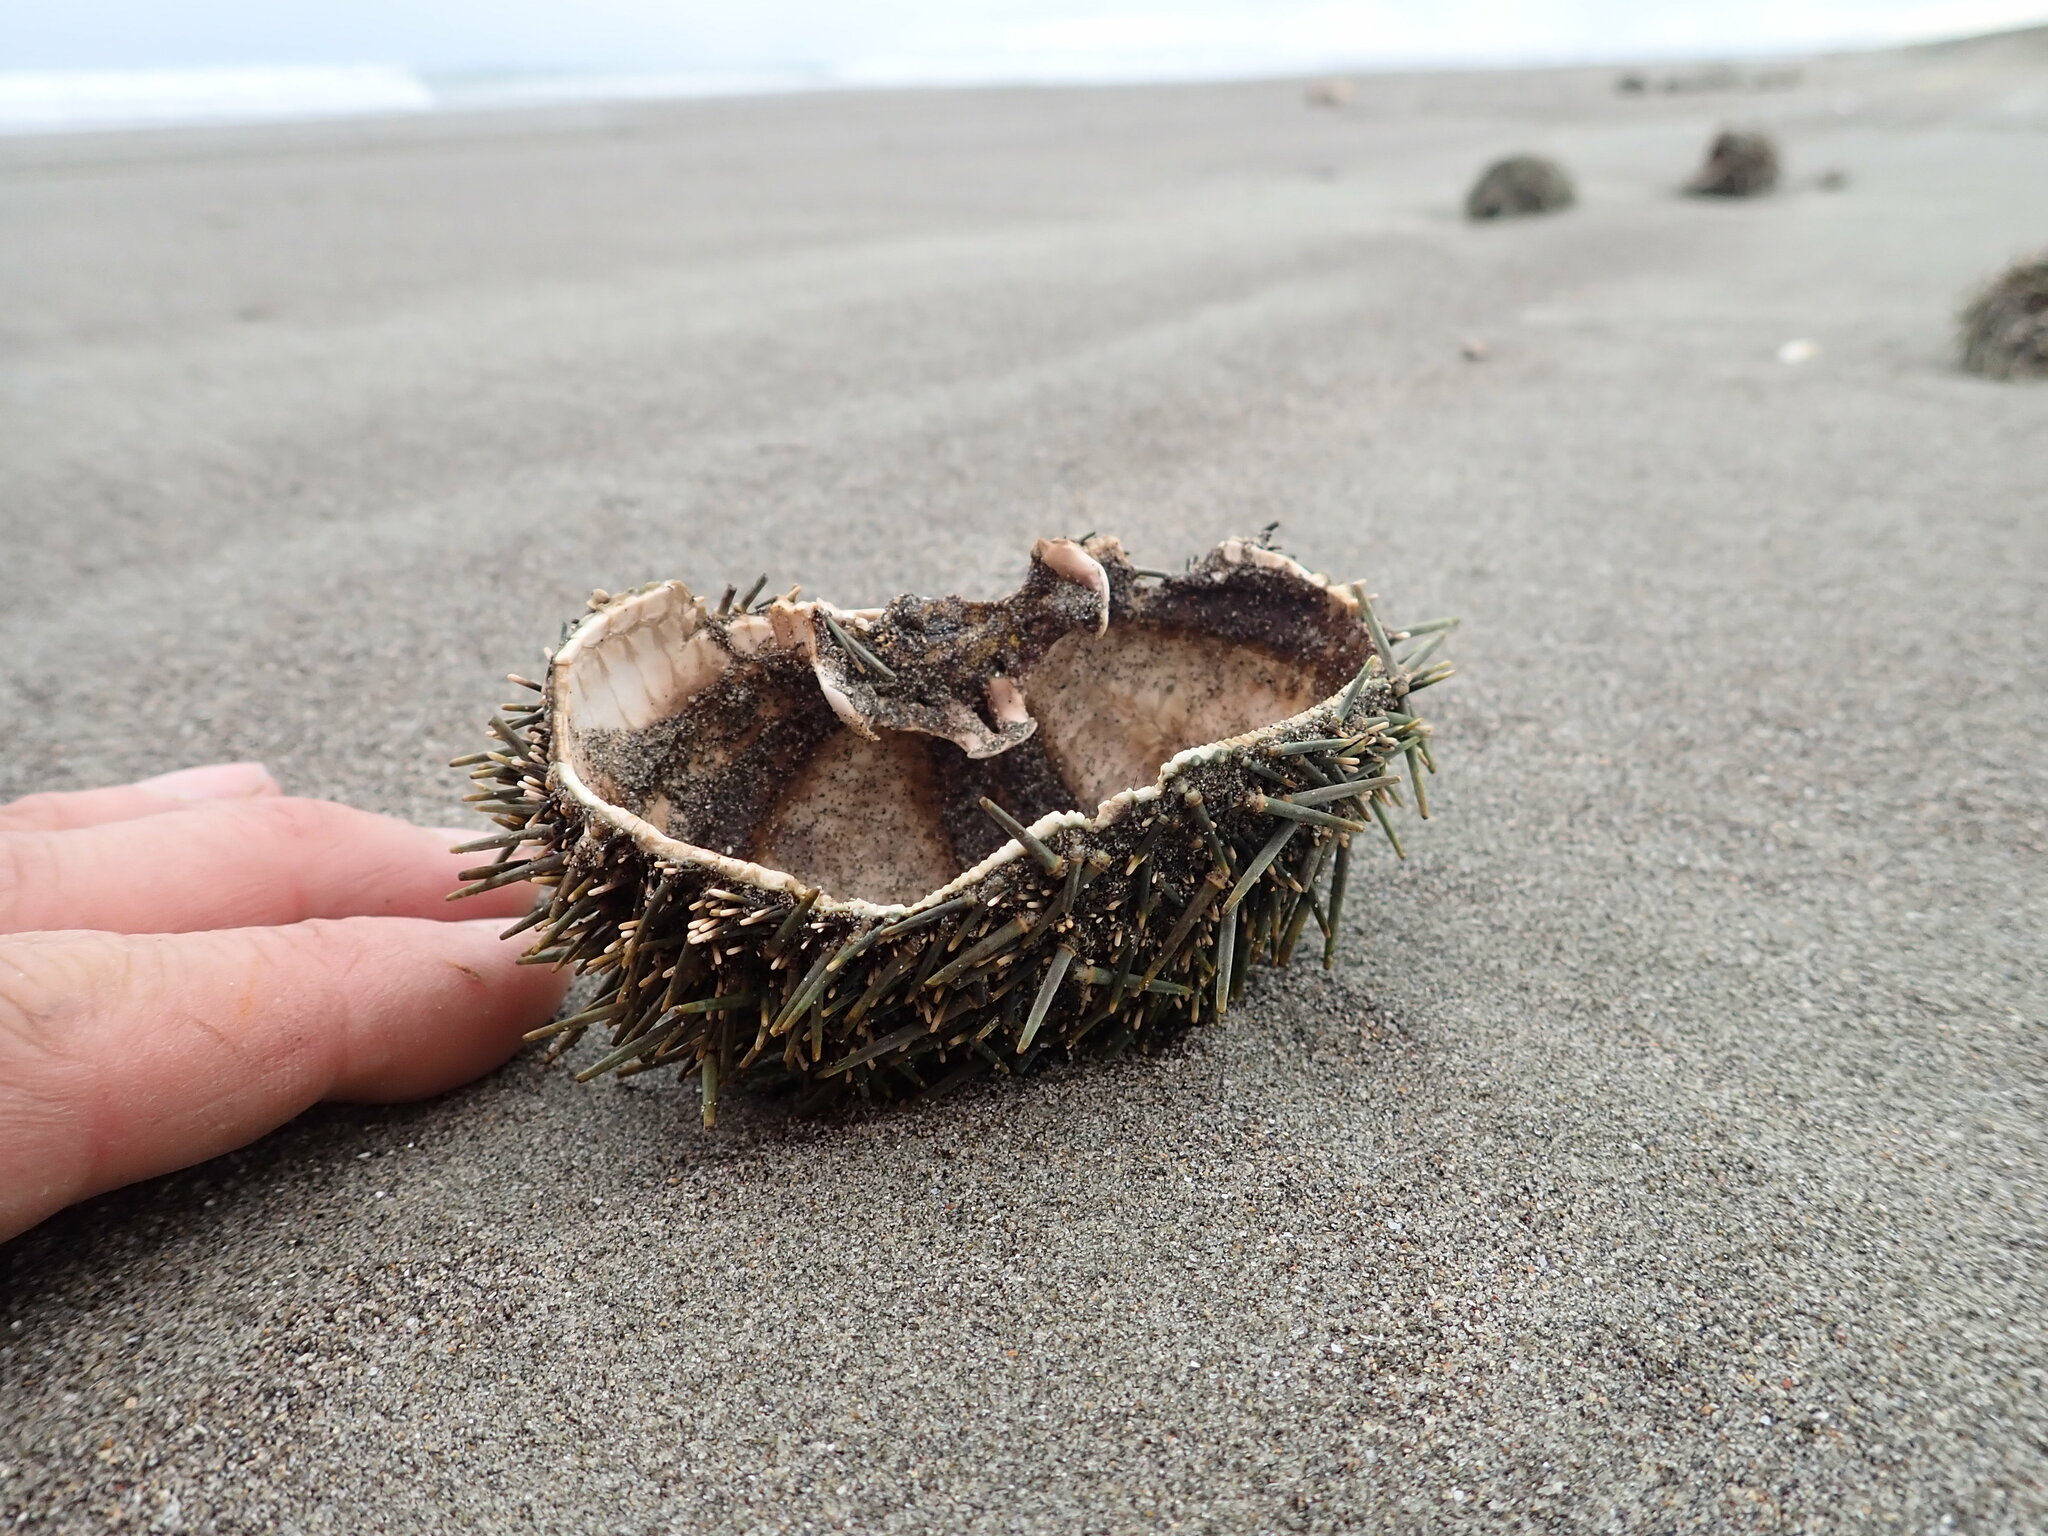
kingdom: Animalia
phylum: Echinodermata
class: Echinoidea
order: Camarodonta
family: Echinometridae
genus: Evechinus
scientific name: Evechinus chloroticus
